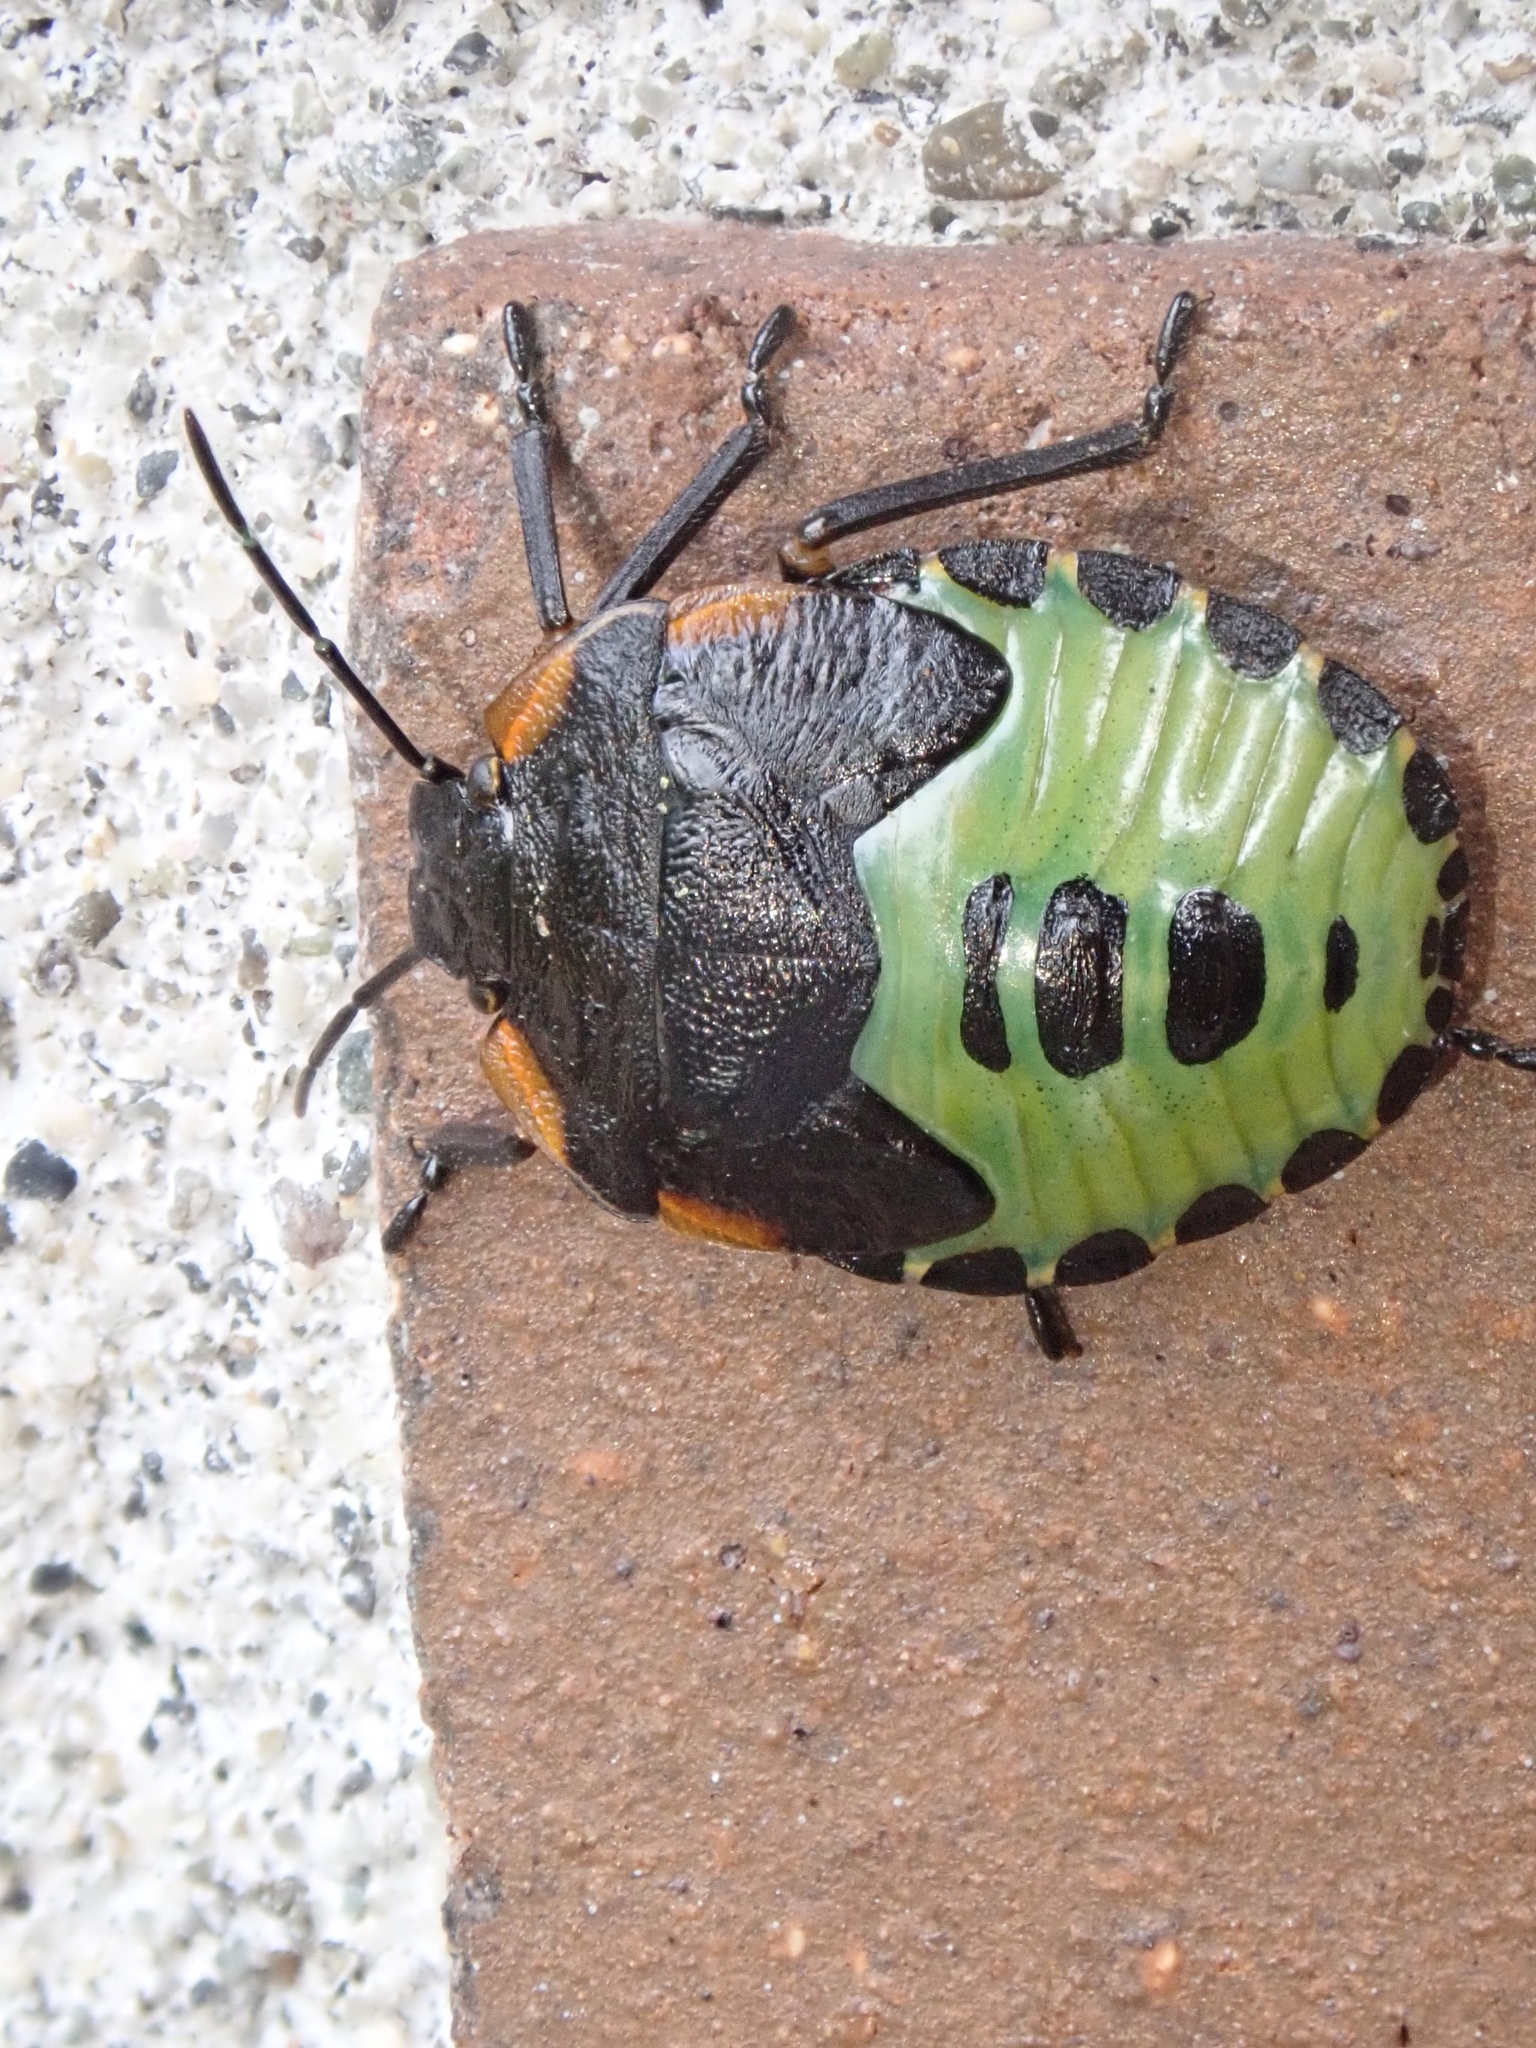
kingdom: Animalia
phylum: Arthropoda
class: Insecta
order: Hemiptera
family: Pentatomidae
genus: Chinavia
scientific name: Chinavia hilaris
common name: Green stink bug
